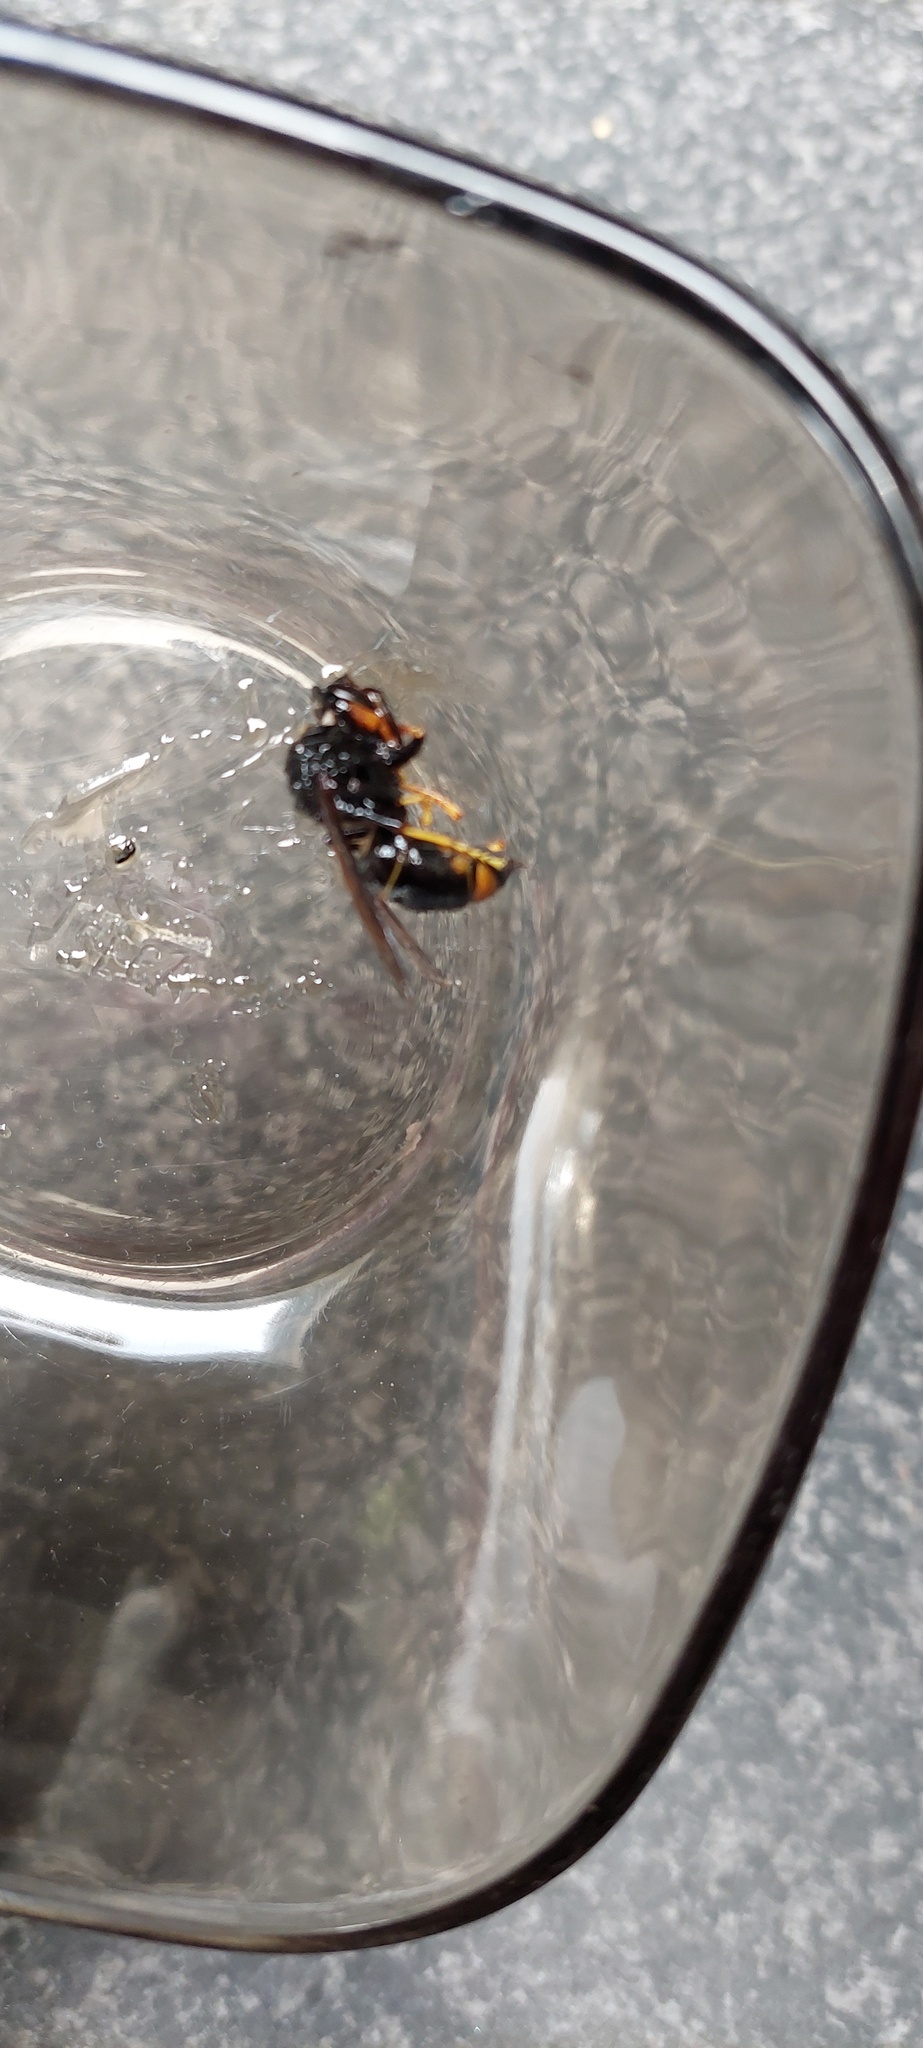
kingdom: Animalia
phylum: Arthropoda
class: Insecta
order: Hymenoptera
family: Vespidae
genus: Vespa
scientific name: Vespa velutina
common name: Asian hornet
